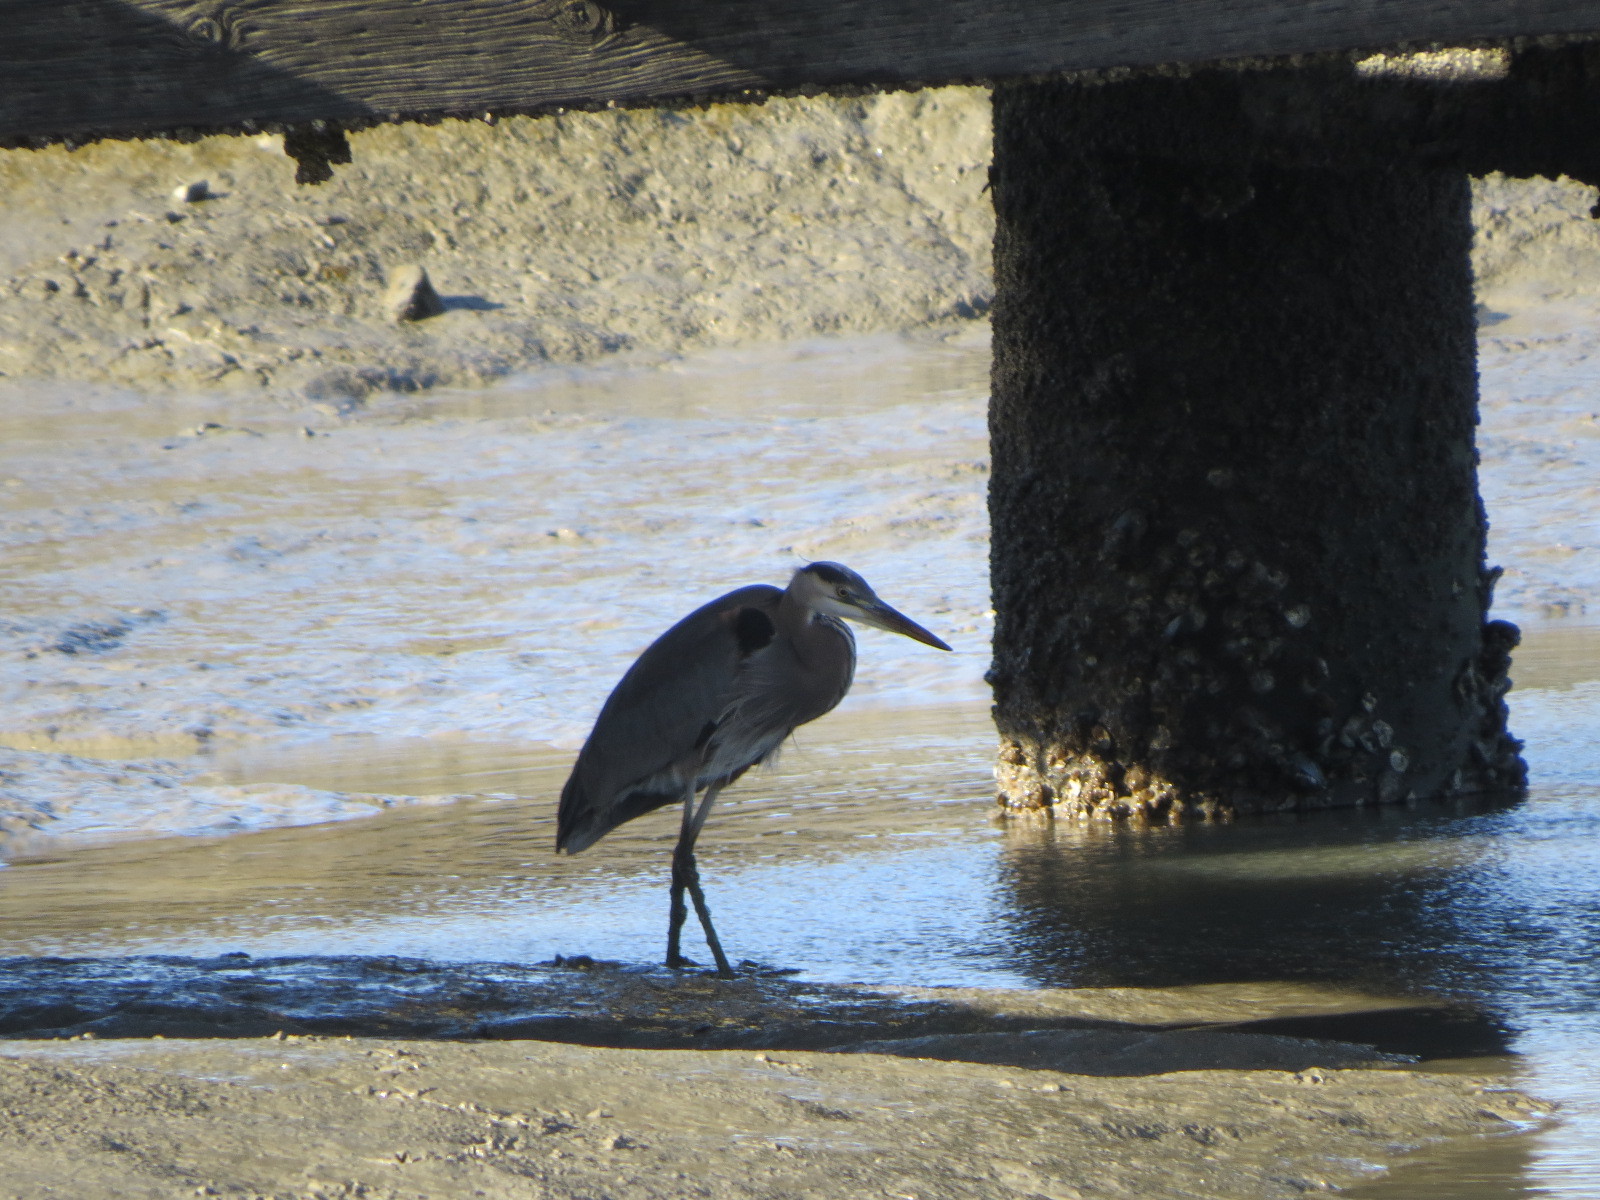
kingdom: Animalia
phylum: Chordata
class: Aves
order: Pelecaniformes
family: Ardeidae
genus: Ardea
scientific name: Ardea herodias
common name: Great blue heron
